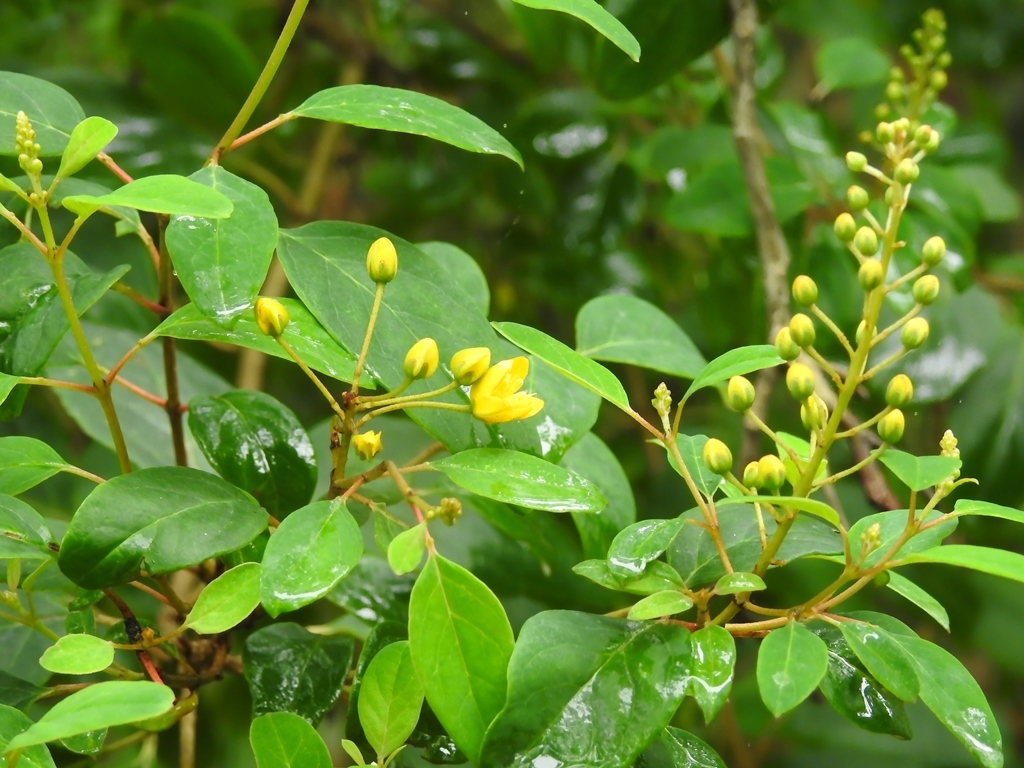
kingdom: Plantae
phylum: Tracheophyta
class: Magnoliopsida
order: Malpighiales
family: Malpighiaceae
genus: Galphimia
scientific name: Galphimia speciosa
